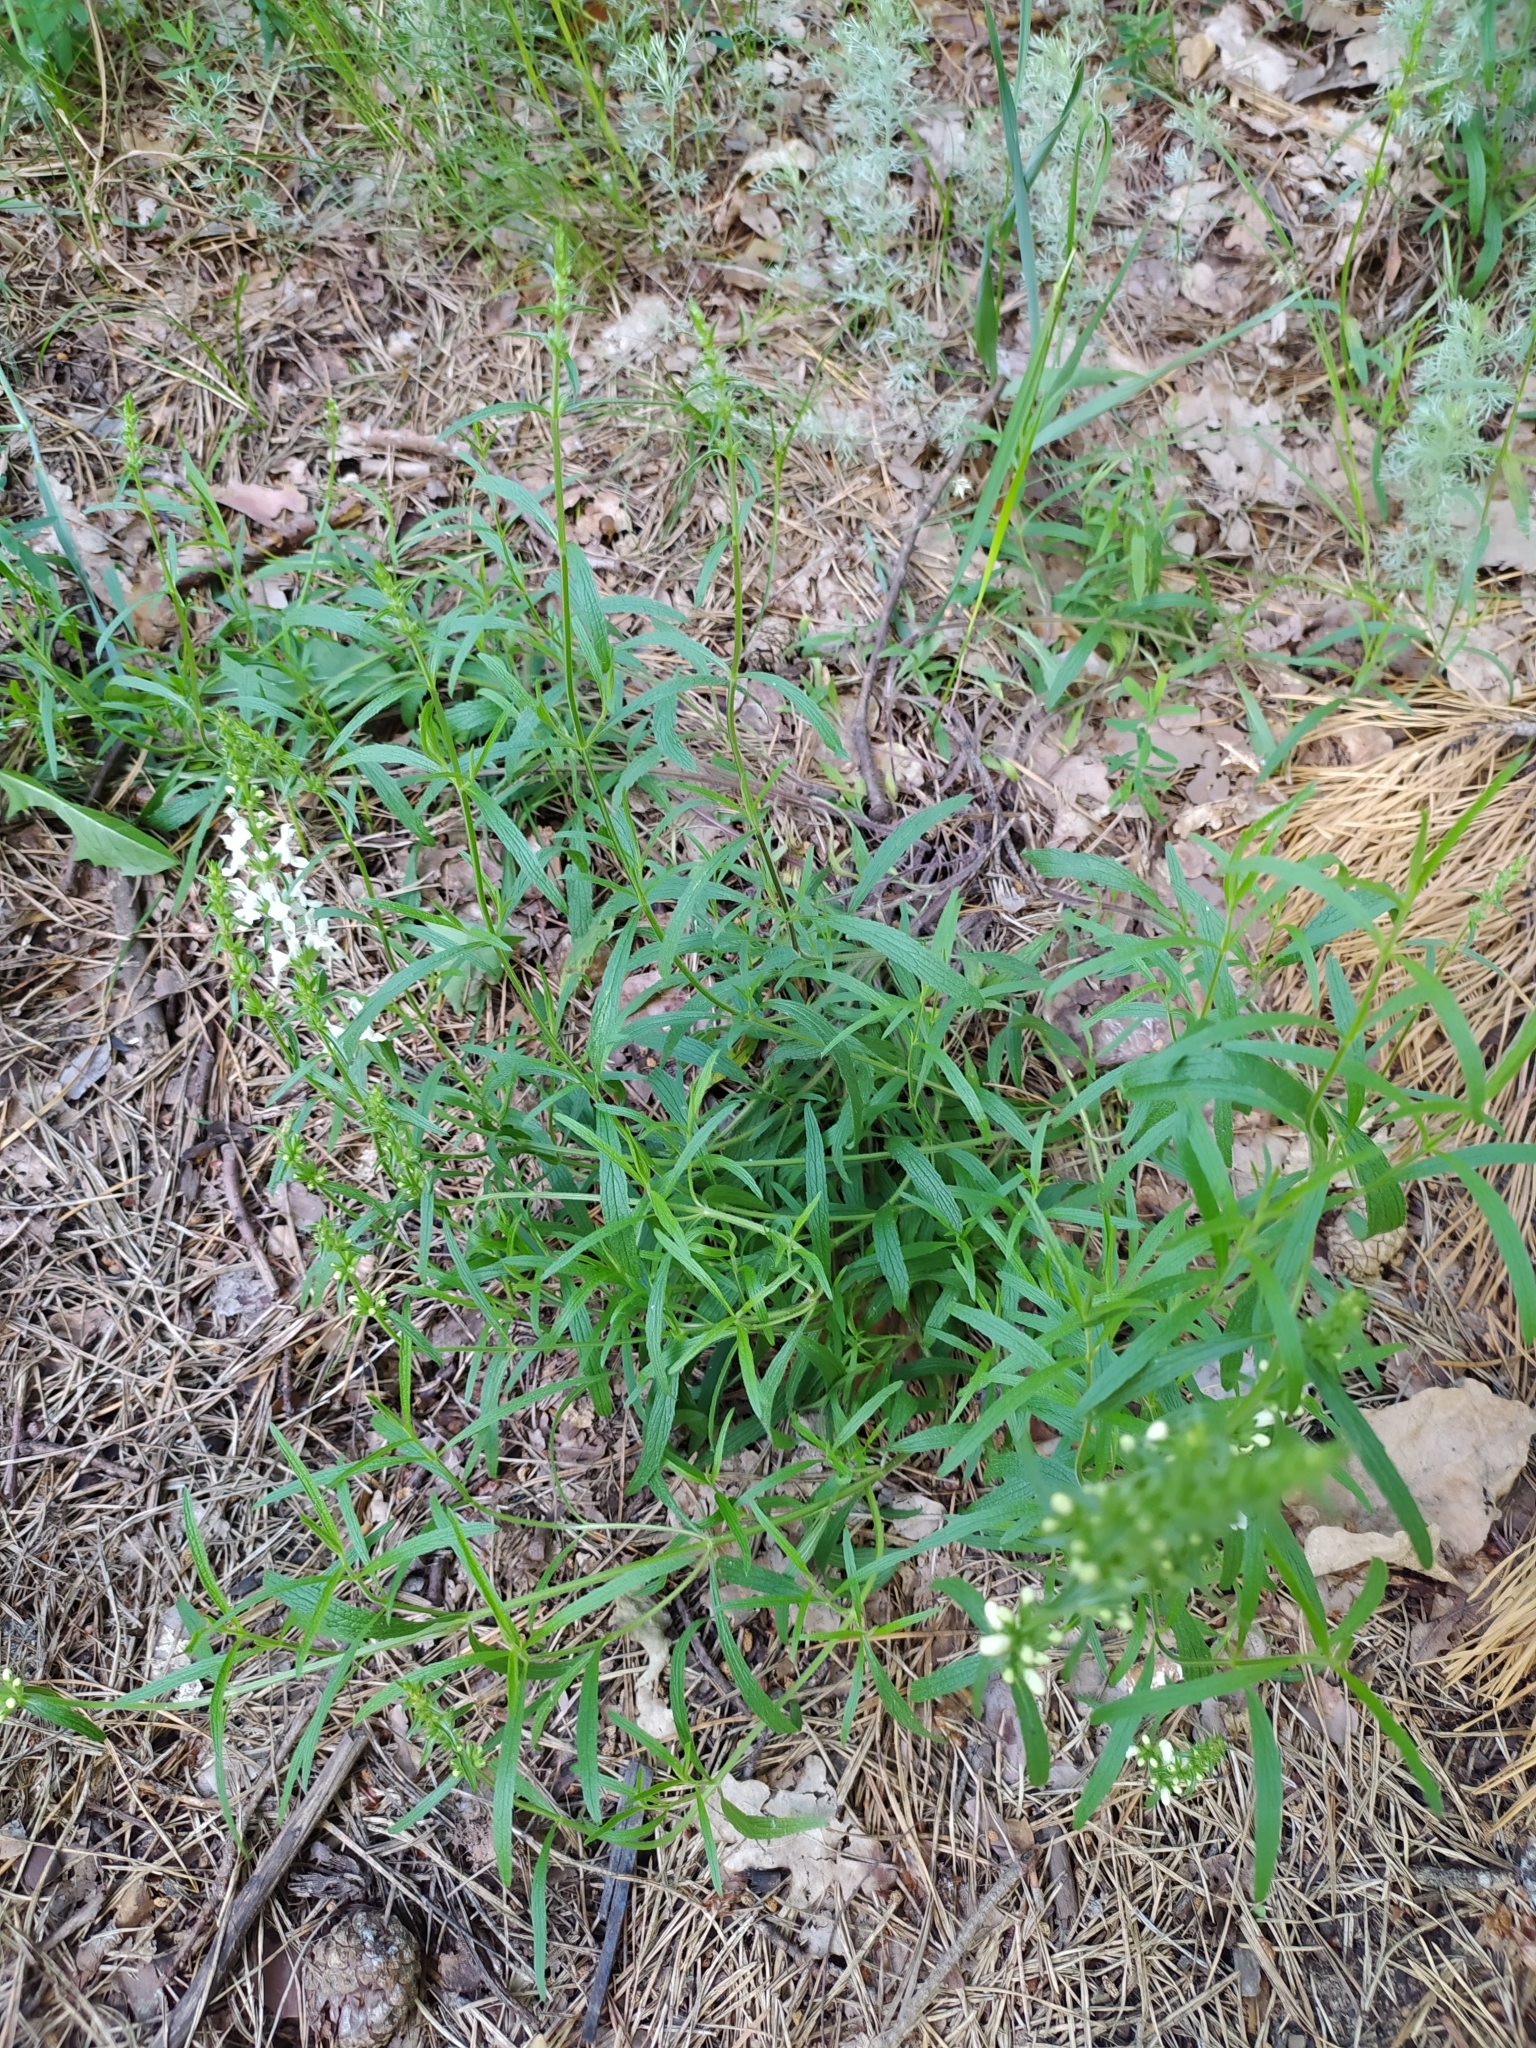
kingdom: Plantae
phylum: Tracheophyta
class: Magnoliopsida
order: Lamiales
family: Lamiaceae
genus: Stachys
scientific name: Stachys recta
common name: Perennial yellow-woundwort
